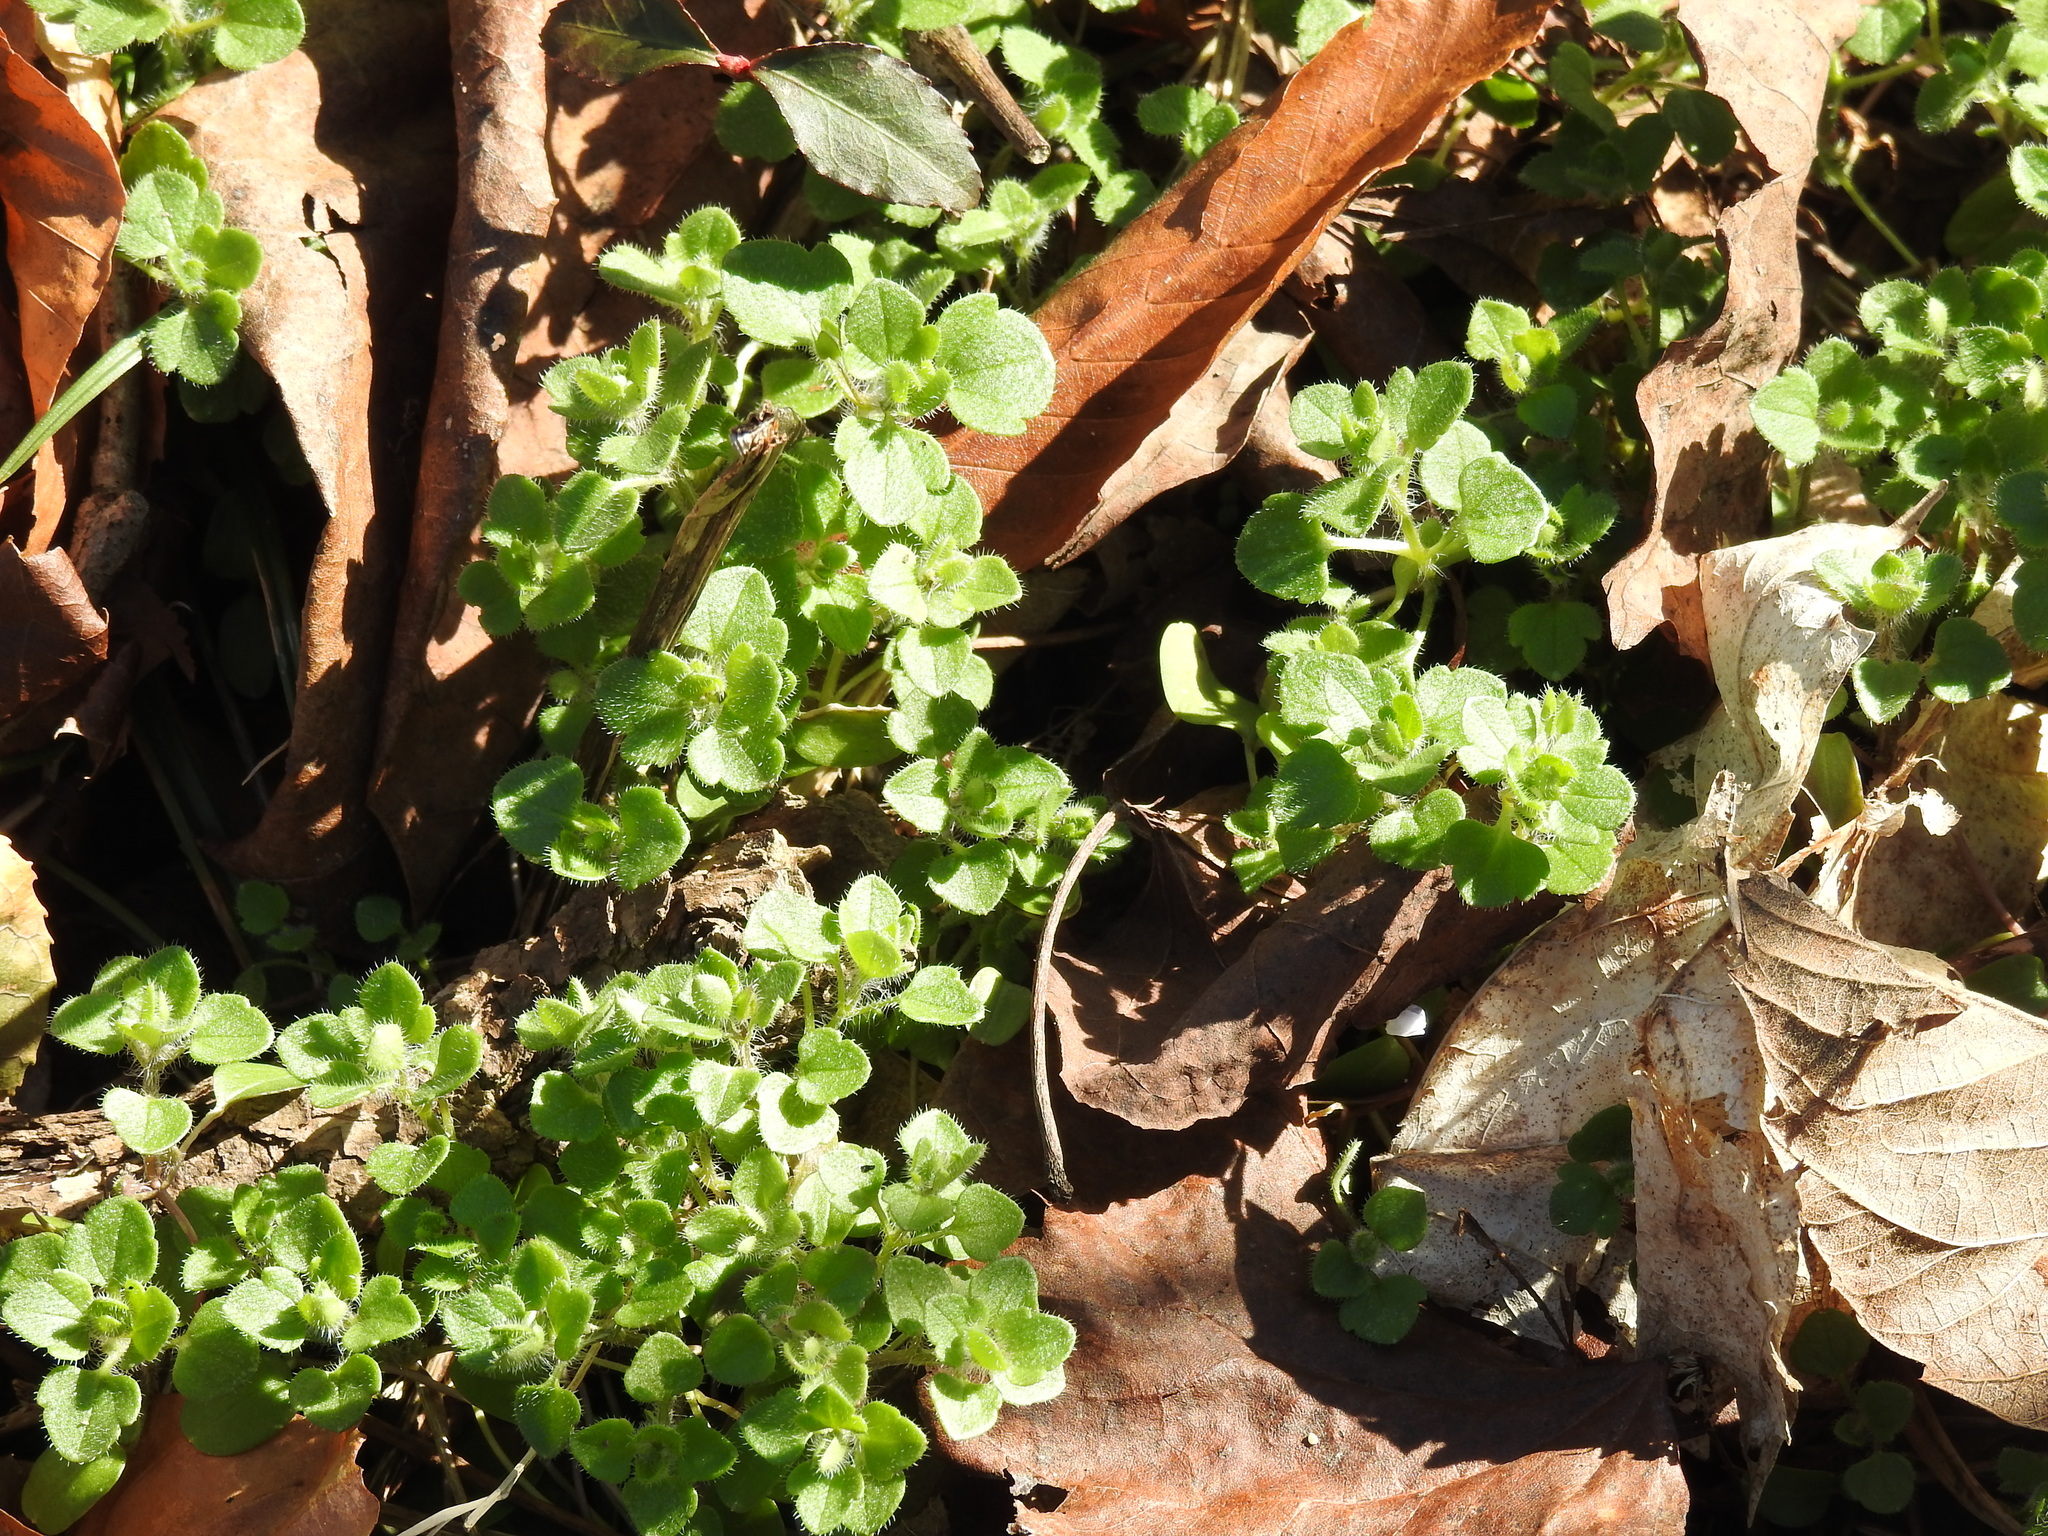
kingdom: Plantae
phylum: Tracheophyta
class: Magnoliopsida
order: Lamiales
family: Plantaginaceae
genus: Veronica
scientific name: Veronica hederifolia
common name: Ivy-leaved speedwell
